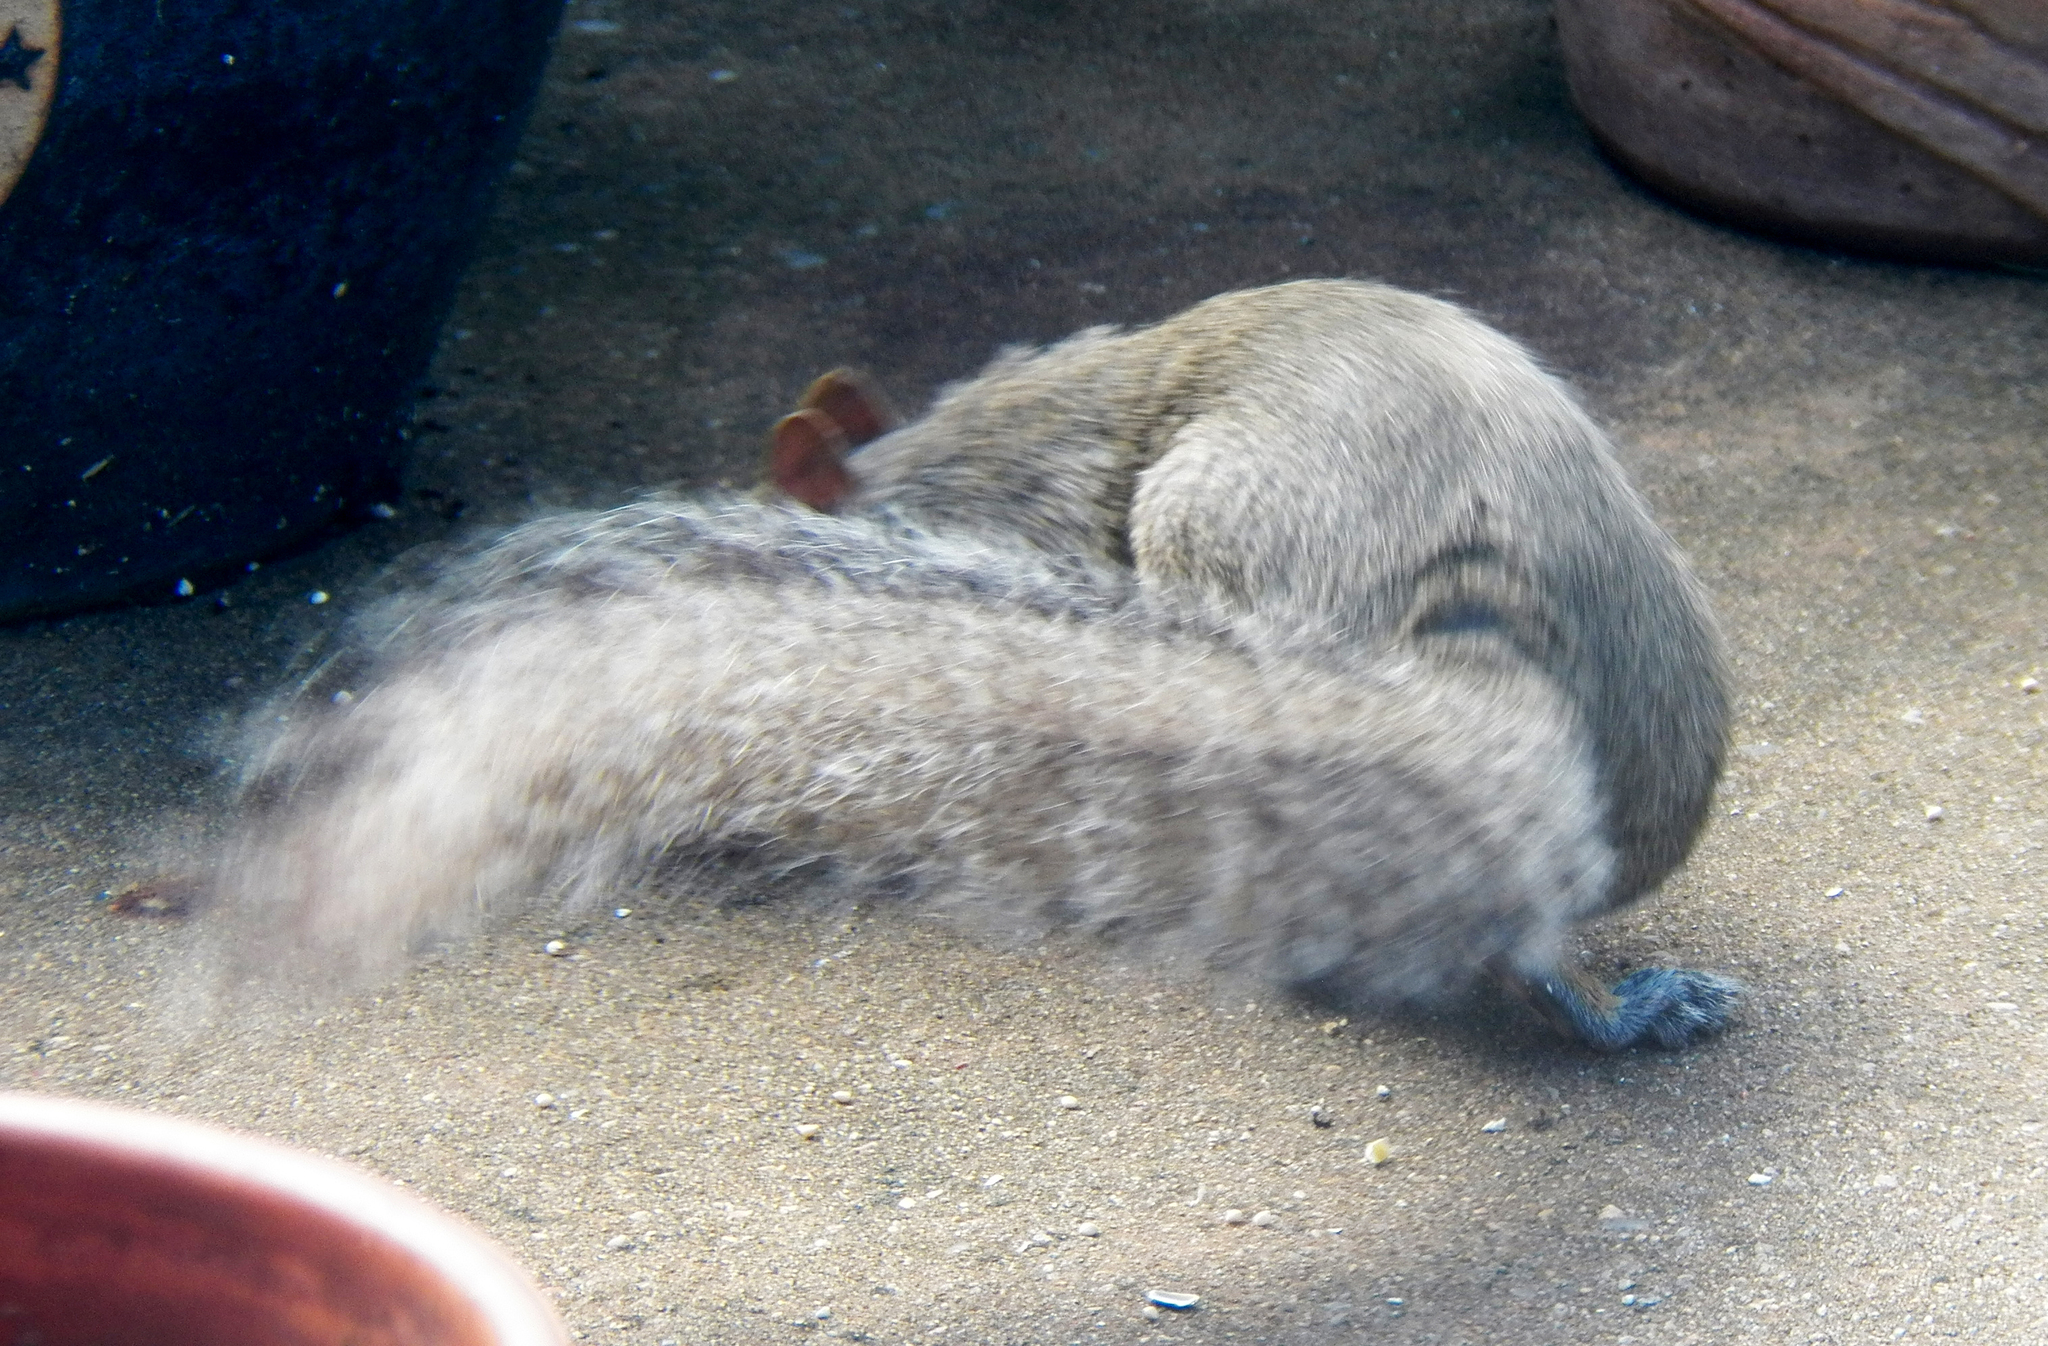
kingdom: Animalia
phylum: Chordata
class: Mammalia
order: Rodentia
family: Sciuridae
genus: Sciurus
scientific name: Sciurus carolinensis
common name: Eastern gray squirrel
